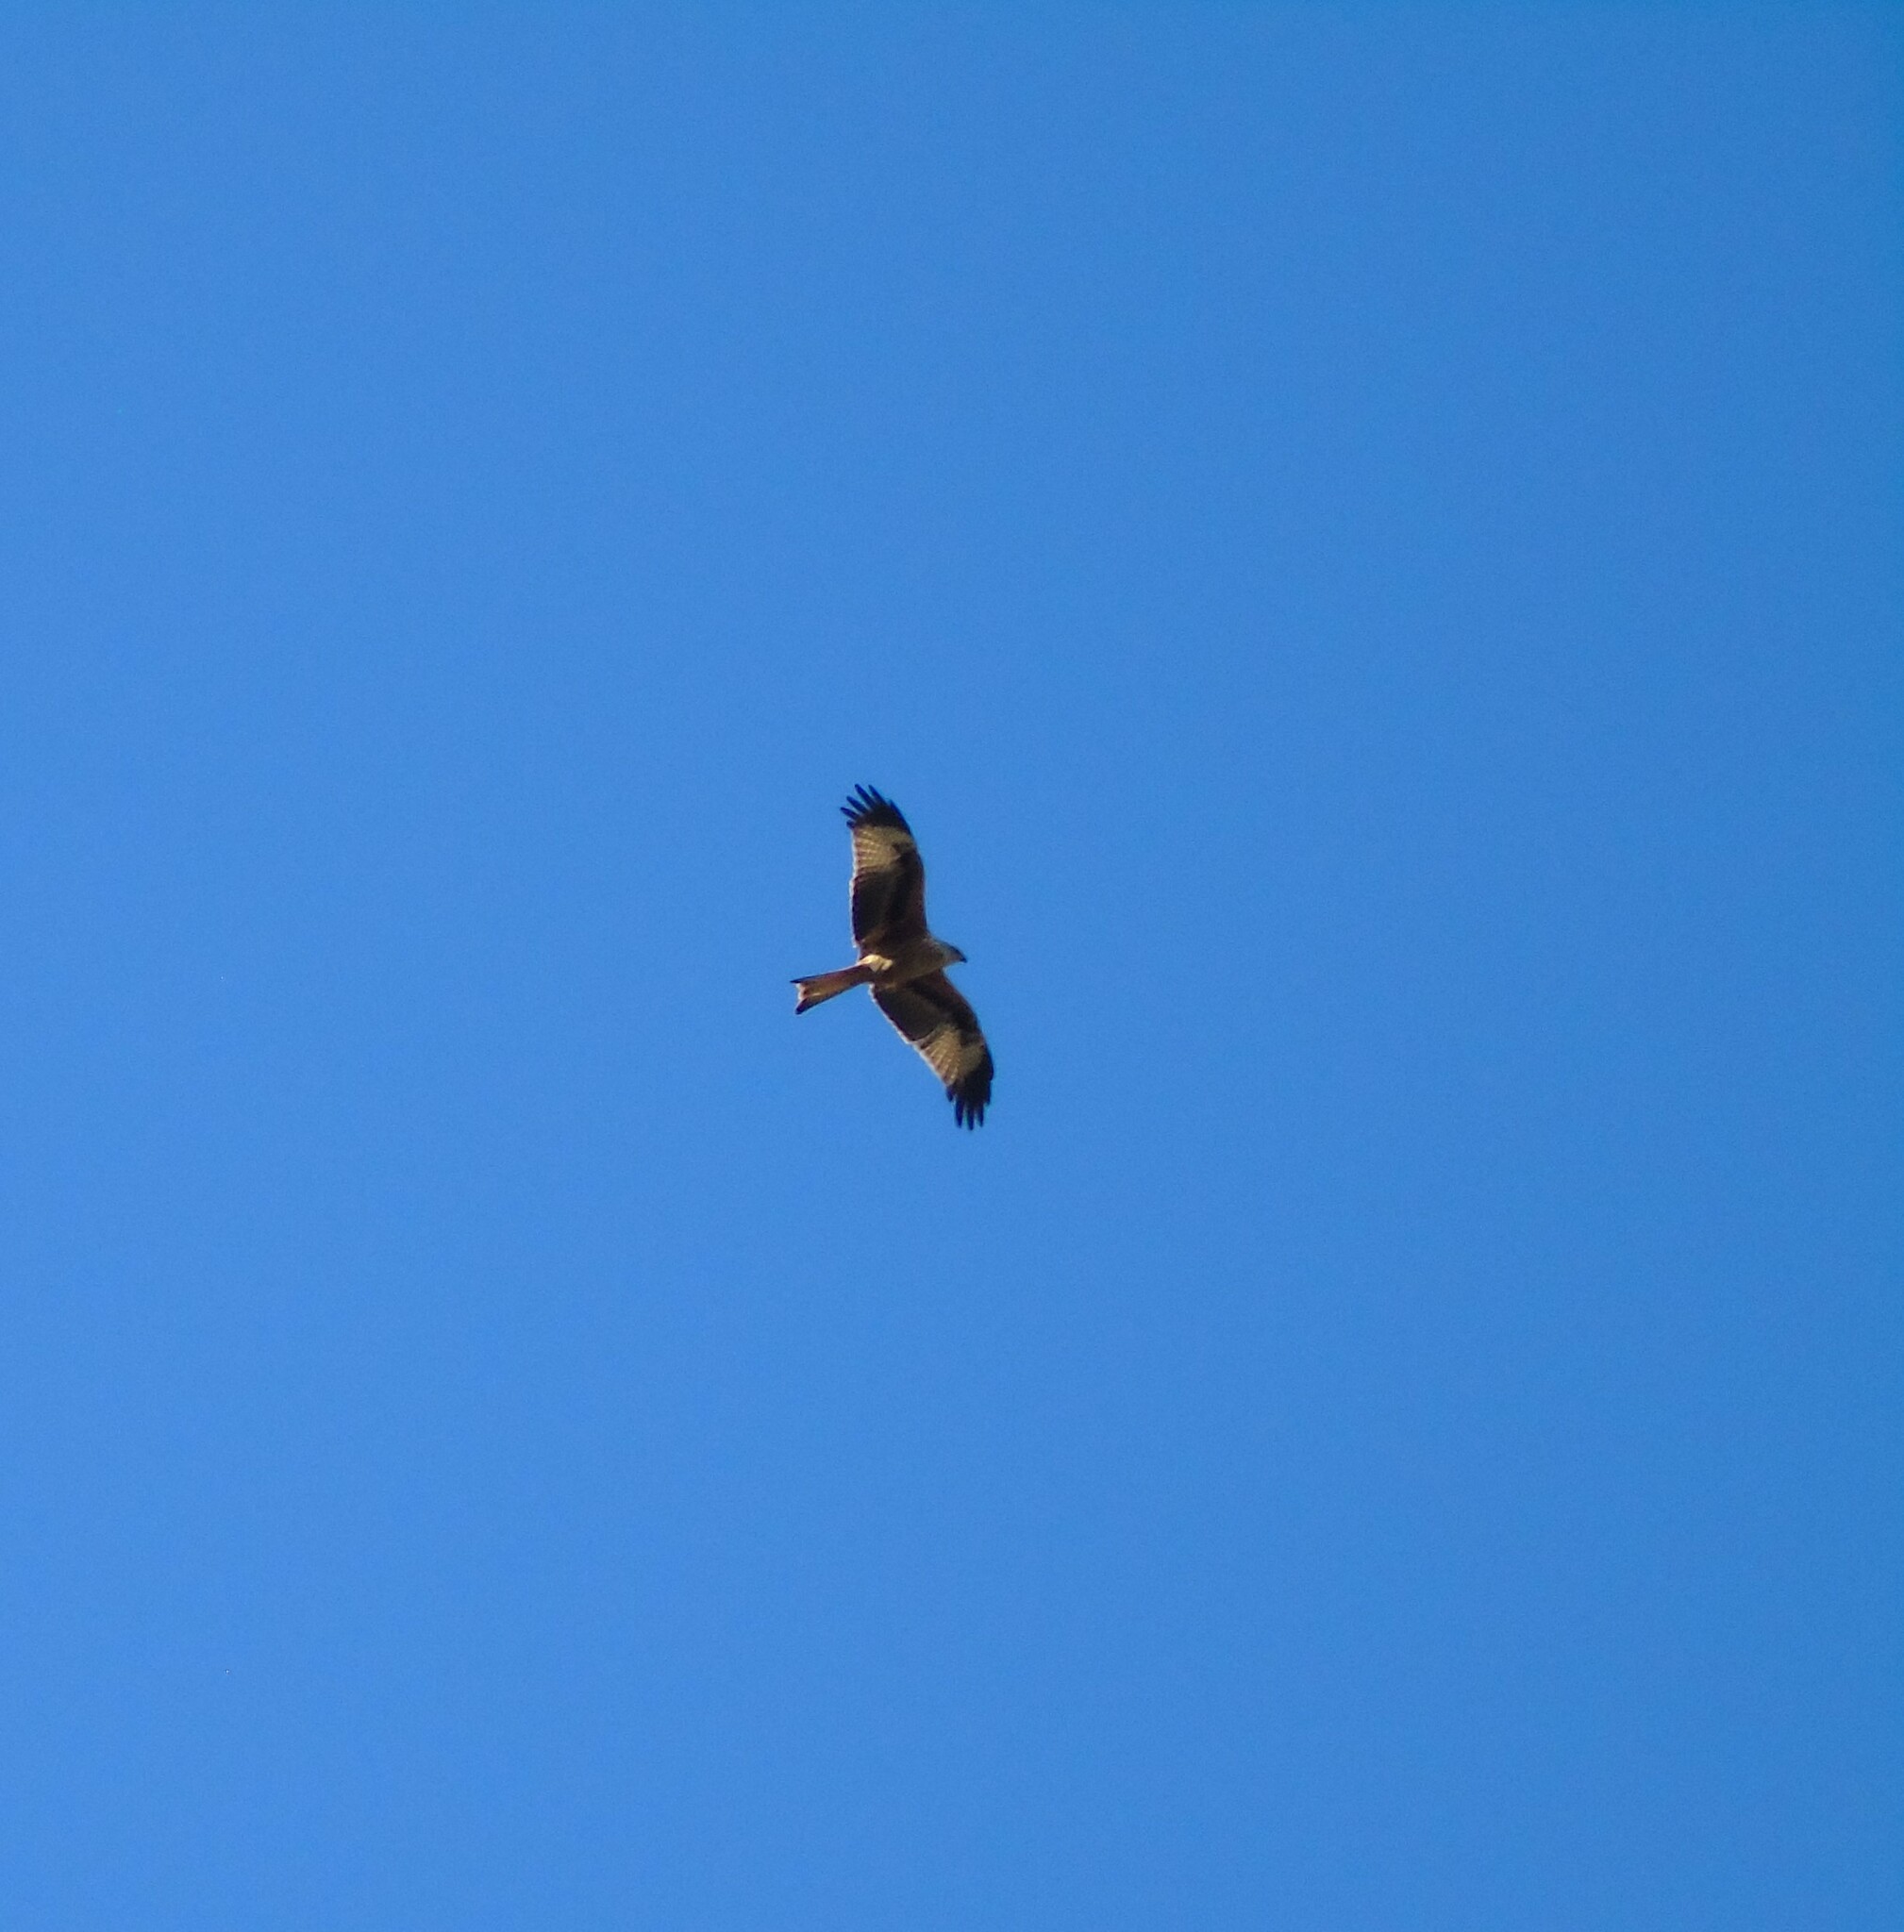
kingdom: Animalia
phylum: Chordata
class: Aves
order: Accipitriformes
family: Accipitridae
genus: Milvus
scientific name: Milvus milvus
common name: Red kite
